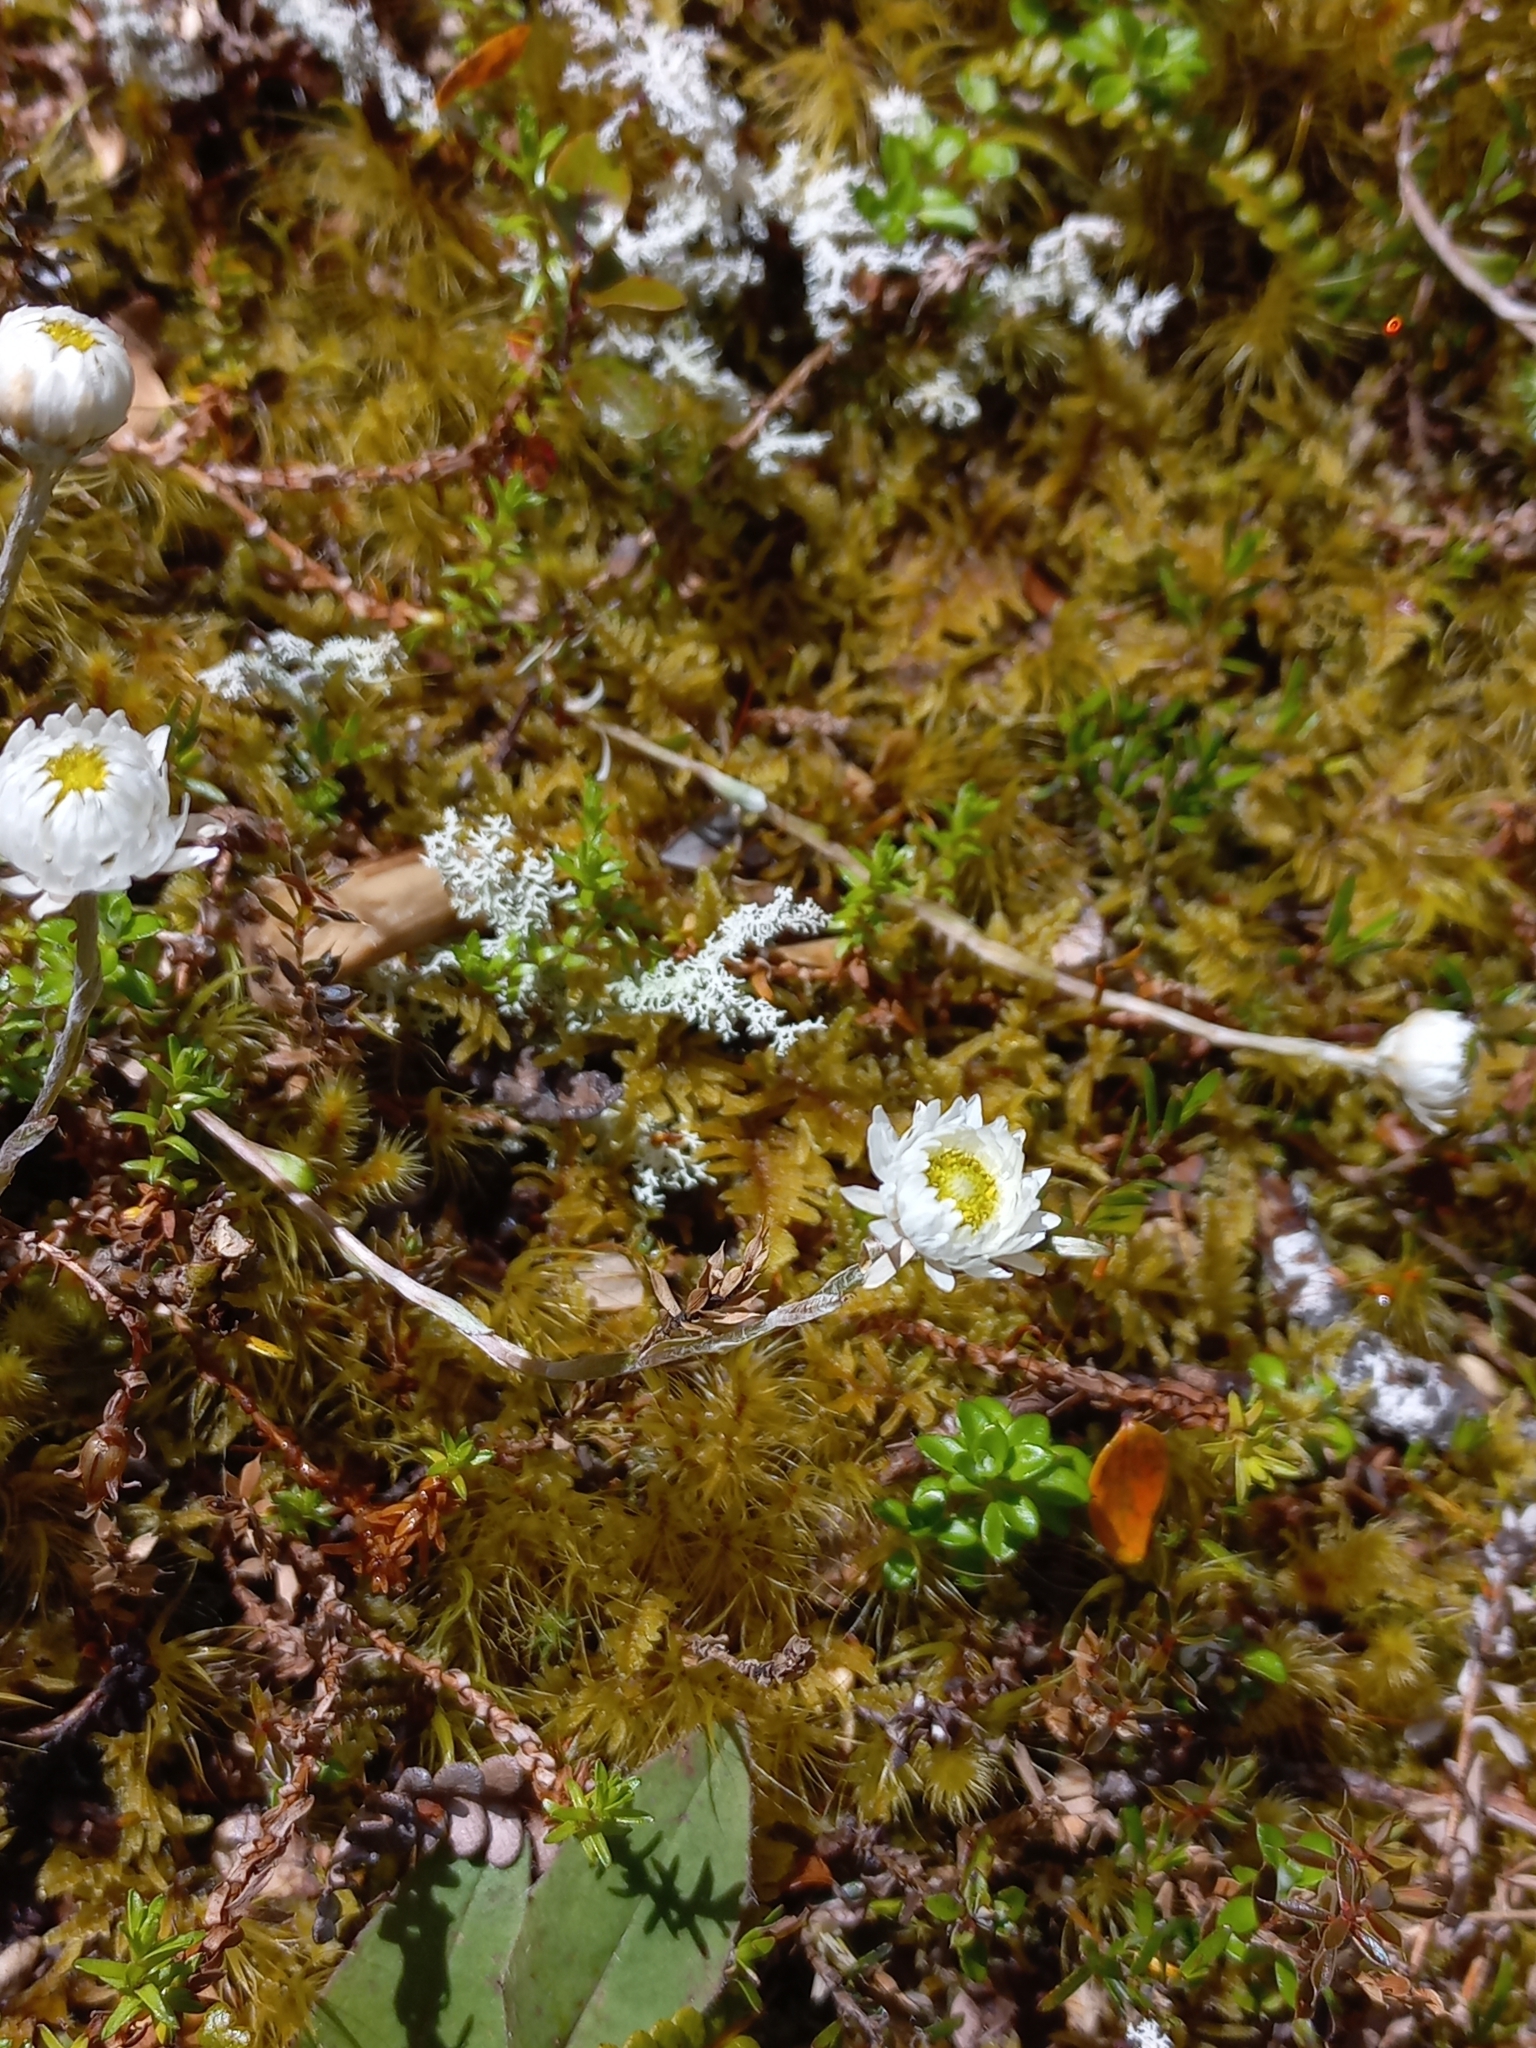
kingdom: Plantae
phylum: Tracheophyta
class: Magnoliopsida
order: Asterales
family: Asteraceae
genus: Anaphalioides
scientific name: Anaphalioides bellidioides
